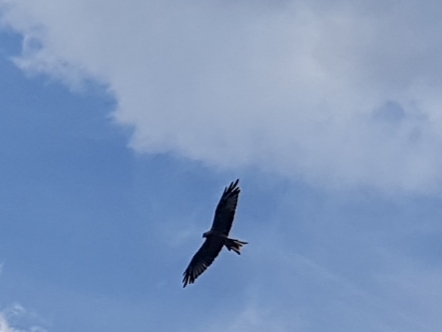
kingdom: Animalia
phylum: Chordata
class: Aves
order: Accipitriformes
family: Accipitridae
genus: Milvus
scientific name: Milvus milvus
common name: Red kite
